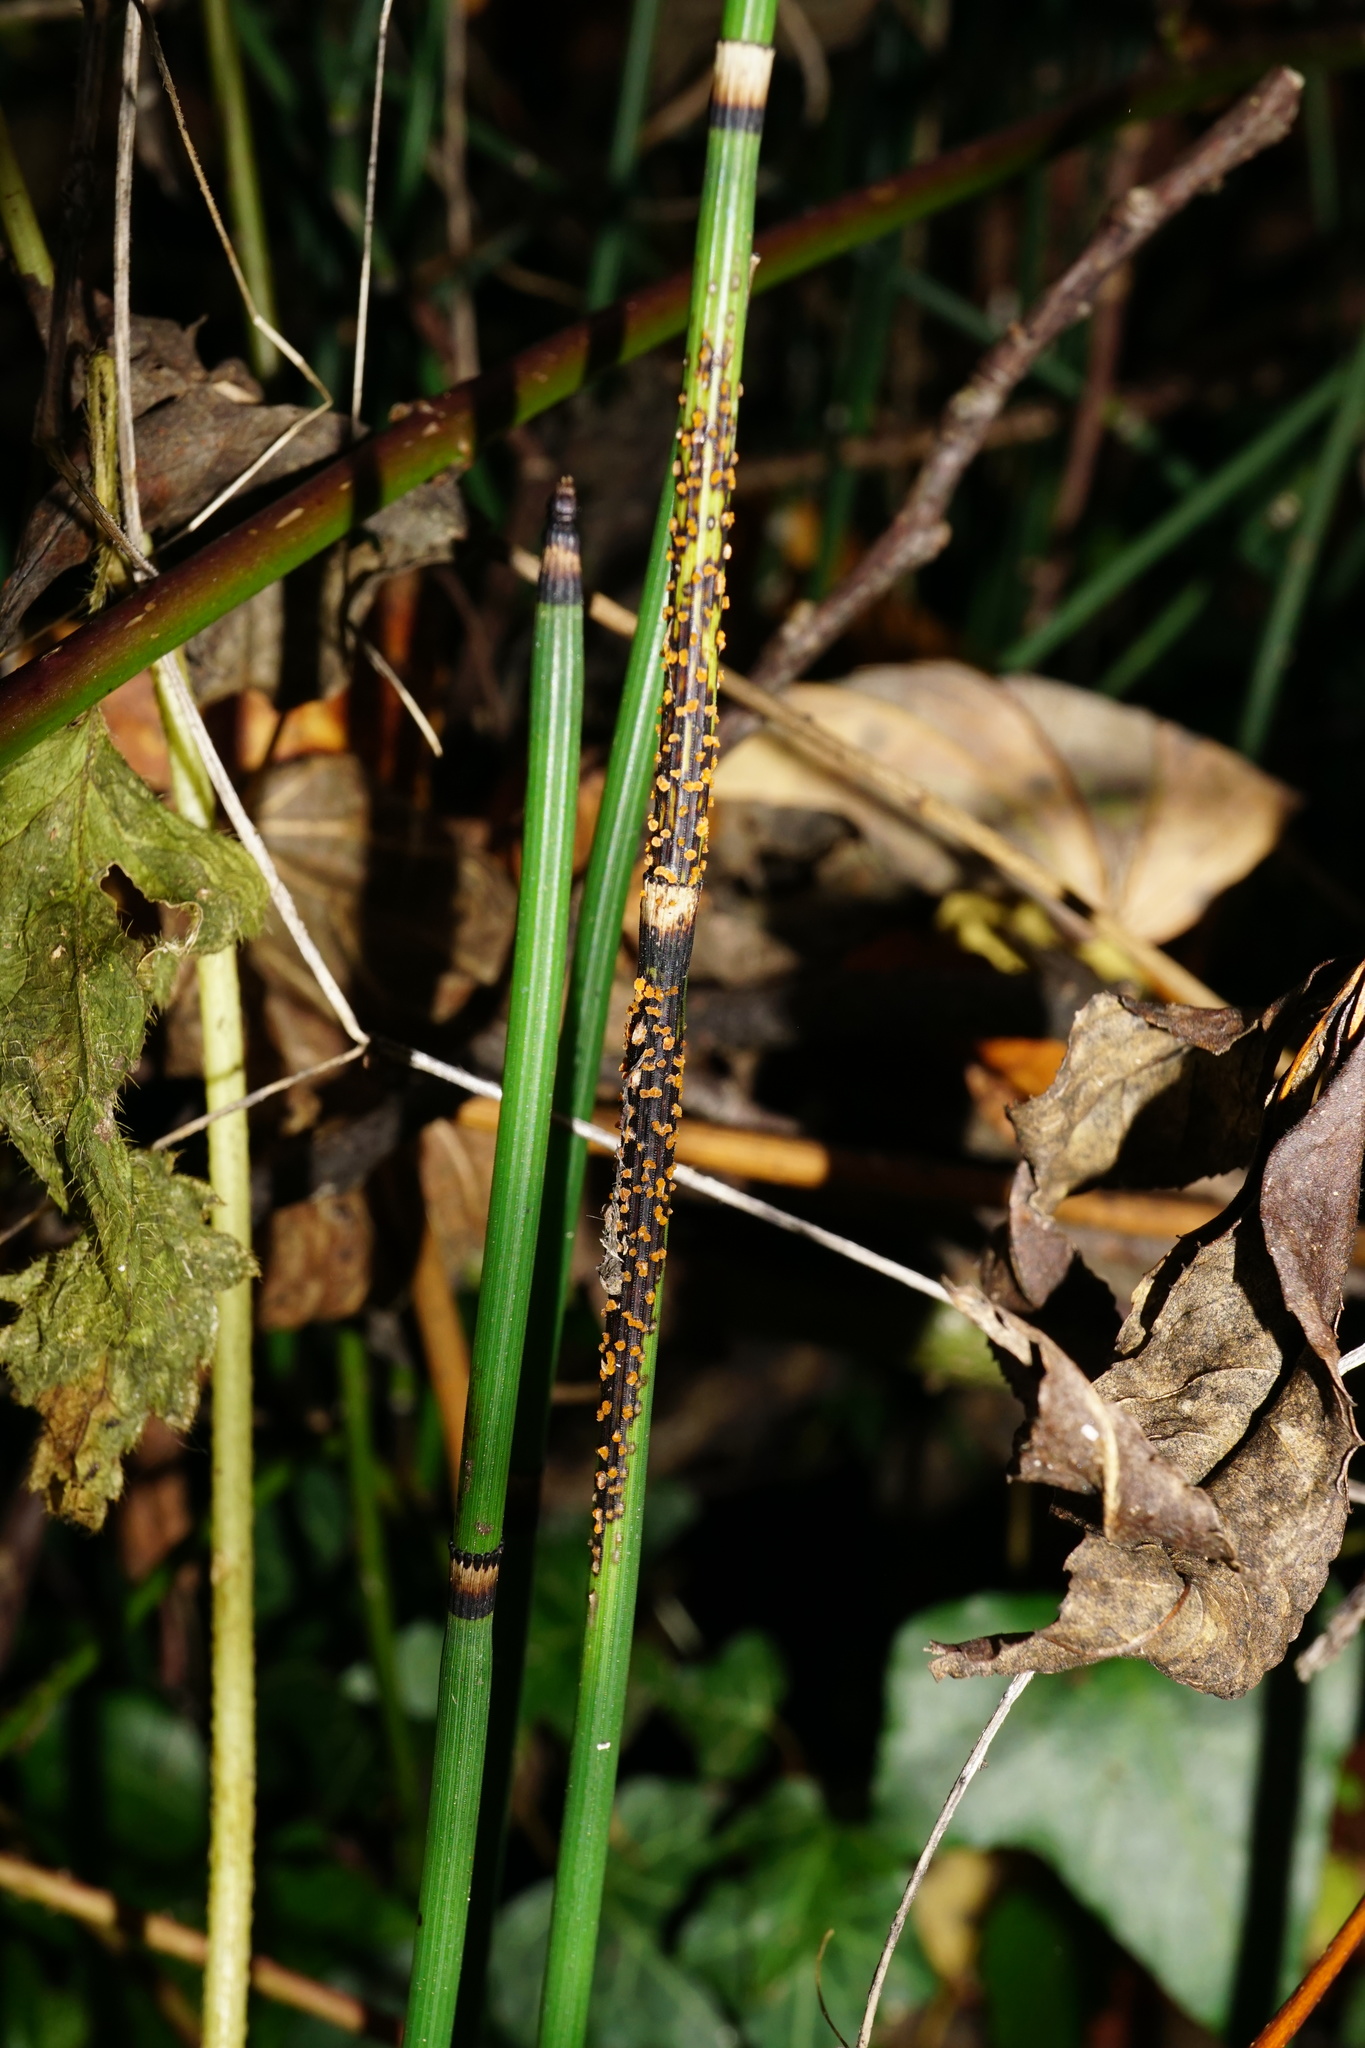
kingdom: Fungi
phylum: Ascomycota
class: Leotiomycetes
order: Helotiales
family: Helotiaceae
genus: Stamnaria
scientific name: Stamnaria americana
